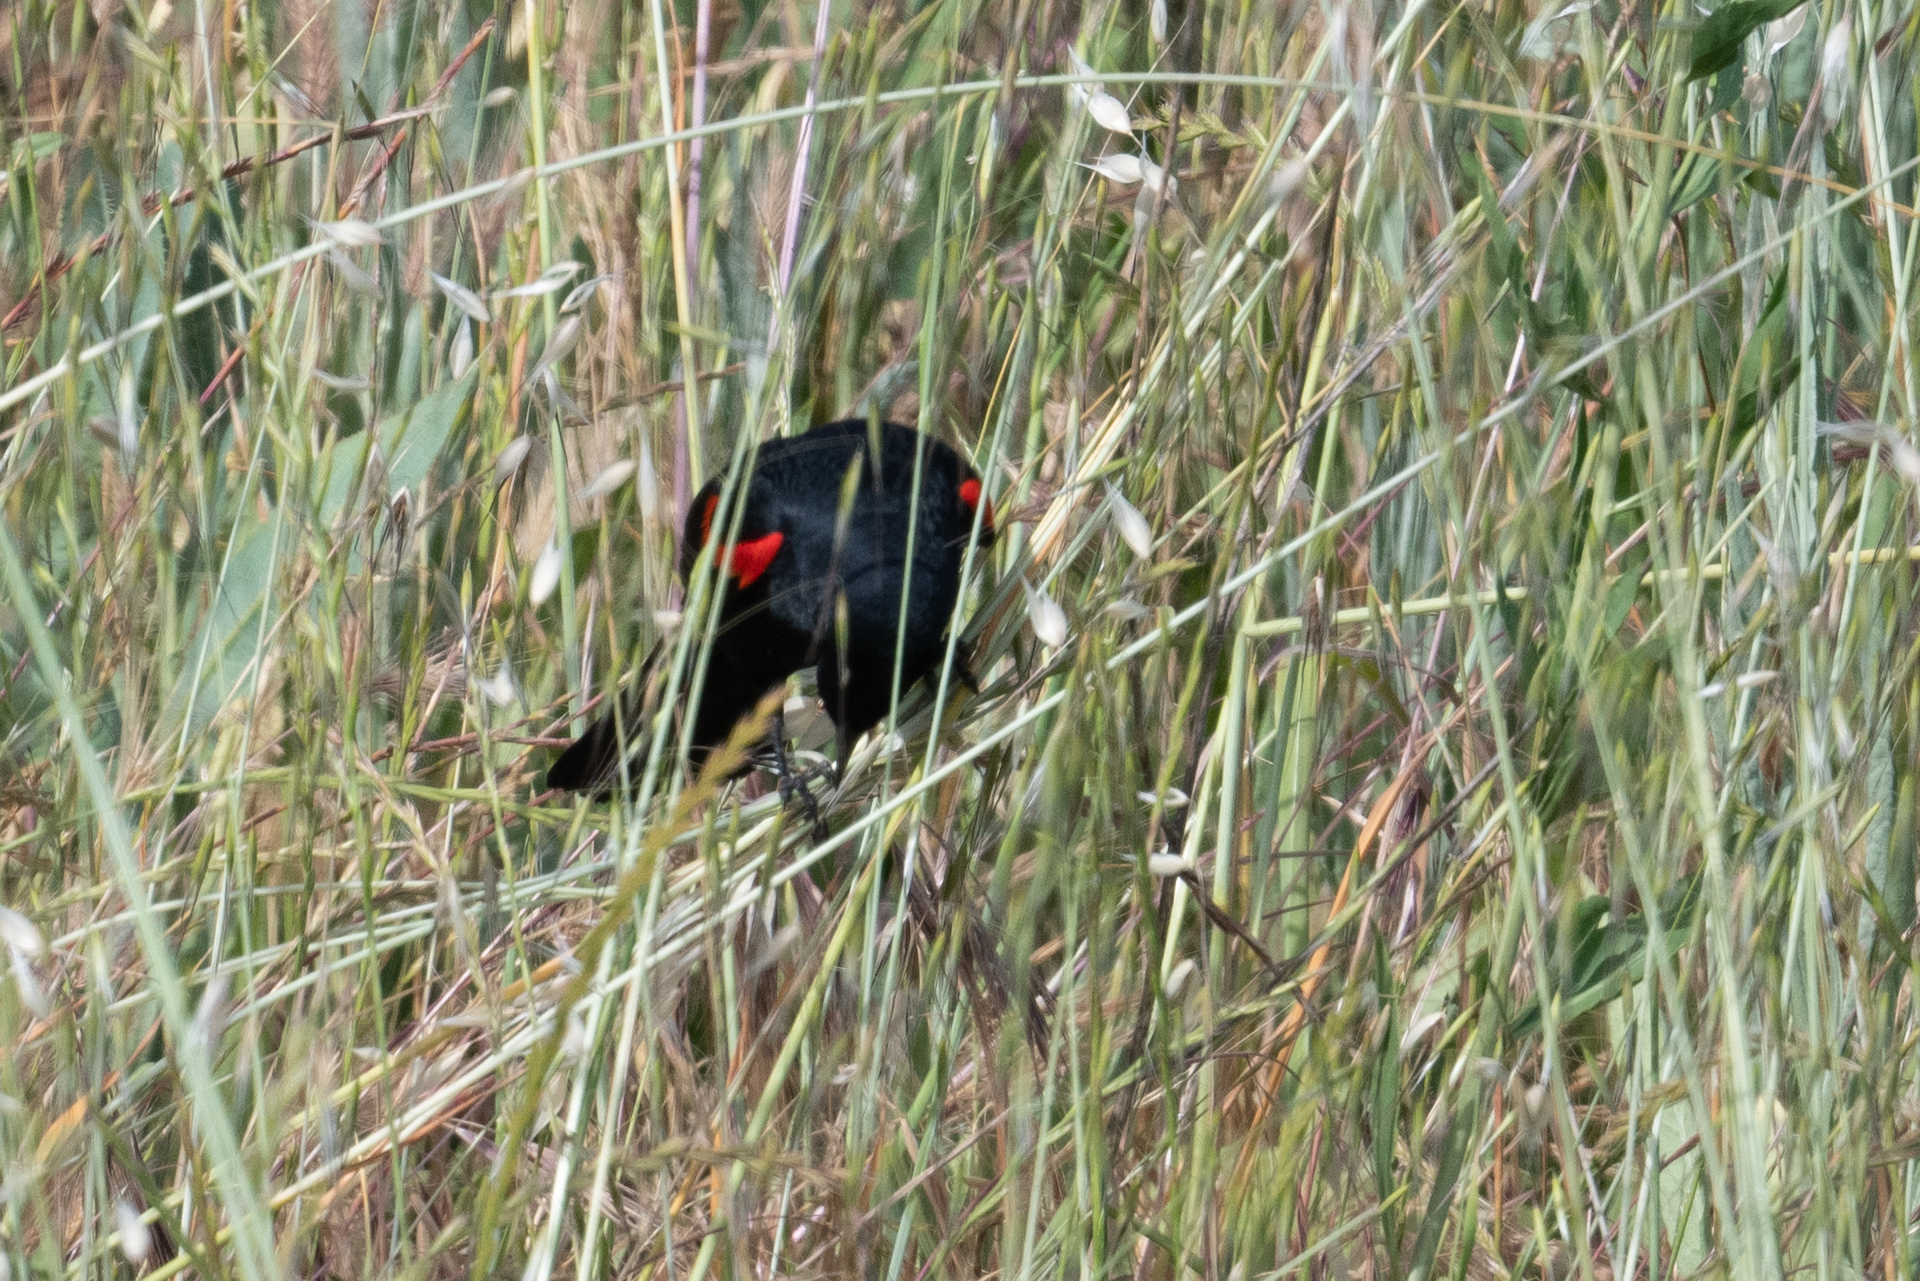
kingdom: Animalia
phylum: Chordata
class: Aves
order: Passeriformes
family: Icteridae
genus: Agelaius
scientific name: Agelaius phoeniceus
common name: Red-winged blackbird
